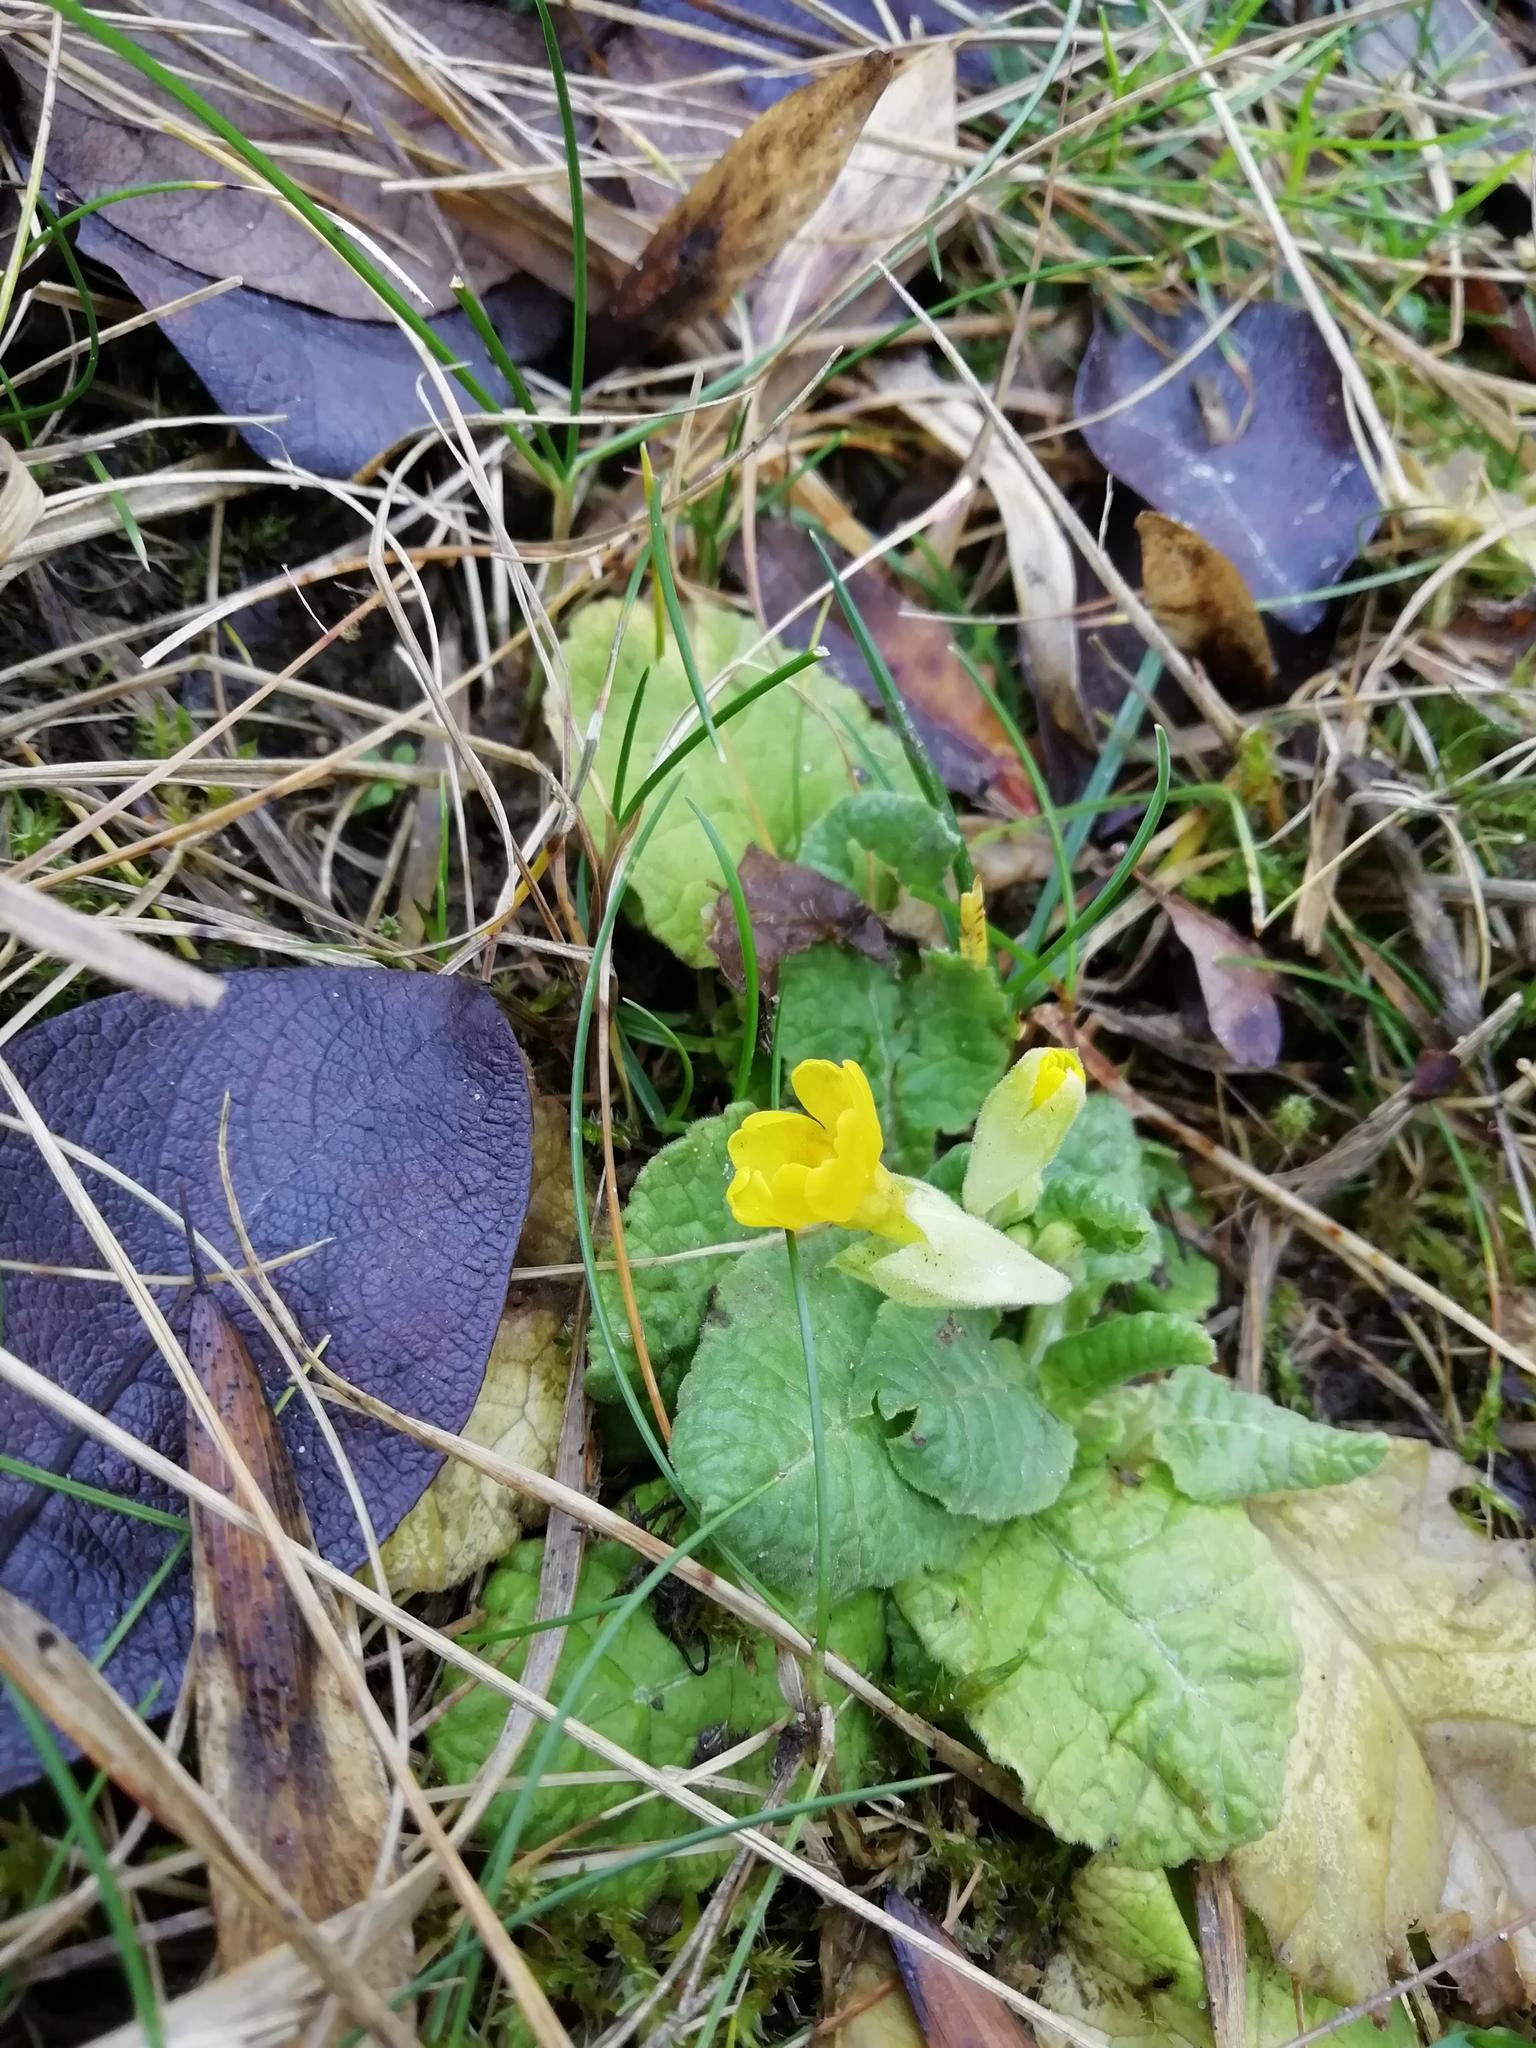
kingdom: Plantae
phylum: Tracheophyta
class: Magnoliopsida
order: Ericales
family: Primulaceae
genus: Primula
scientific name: Primula veris
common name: Cowslip
